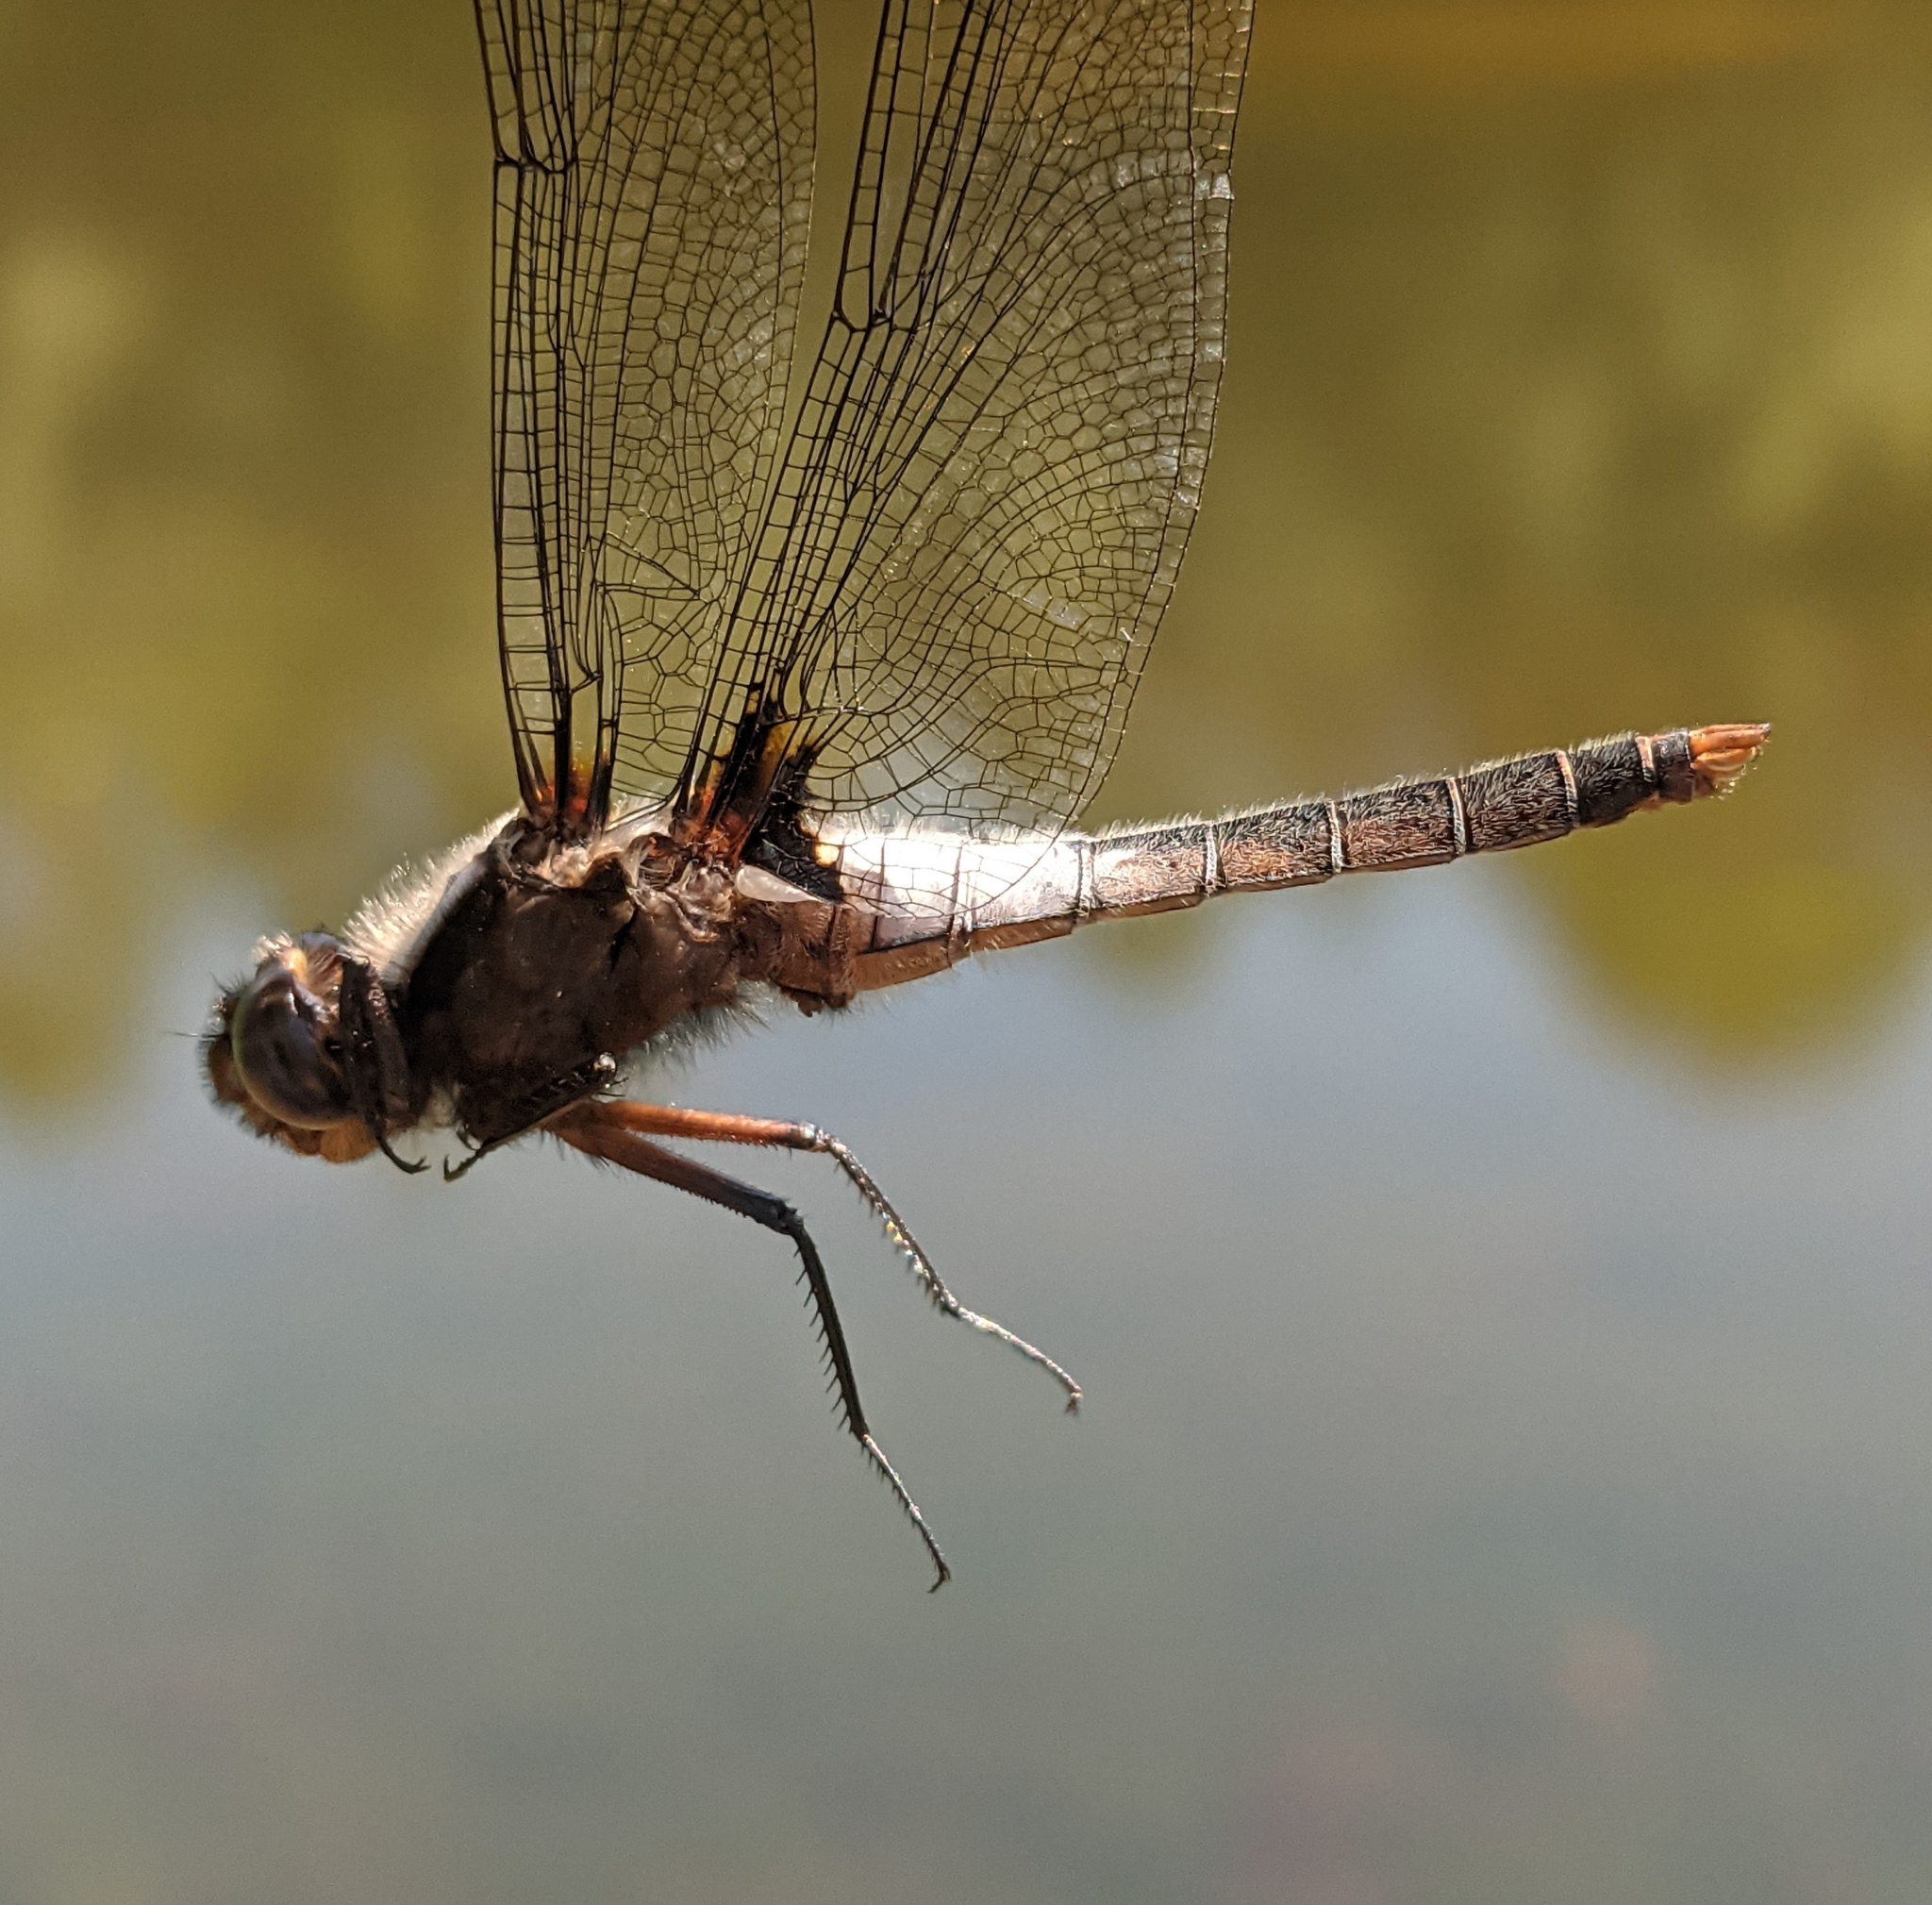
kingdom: Animalia
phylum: Arthropoda
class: Insecta
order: Odonata
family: Libellulidae
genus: Ladona
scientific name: Ladona julia
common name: Chalk-fronted corporal
